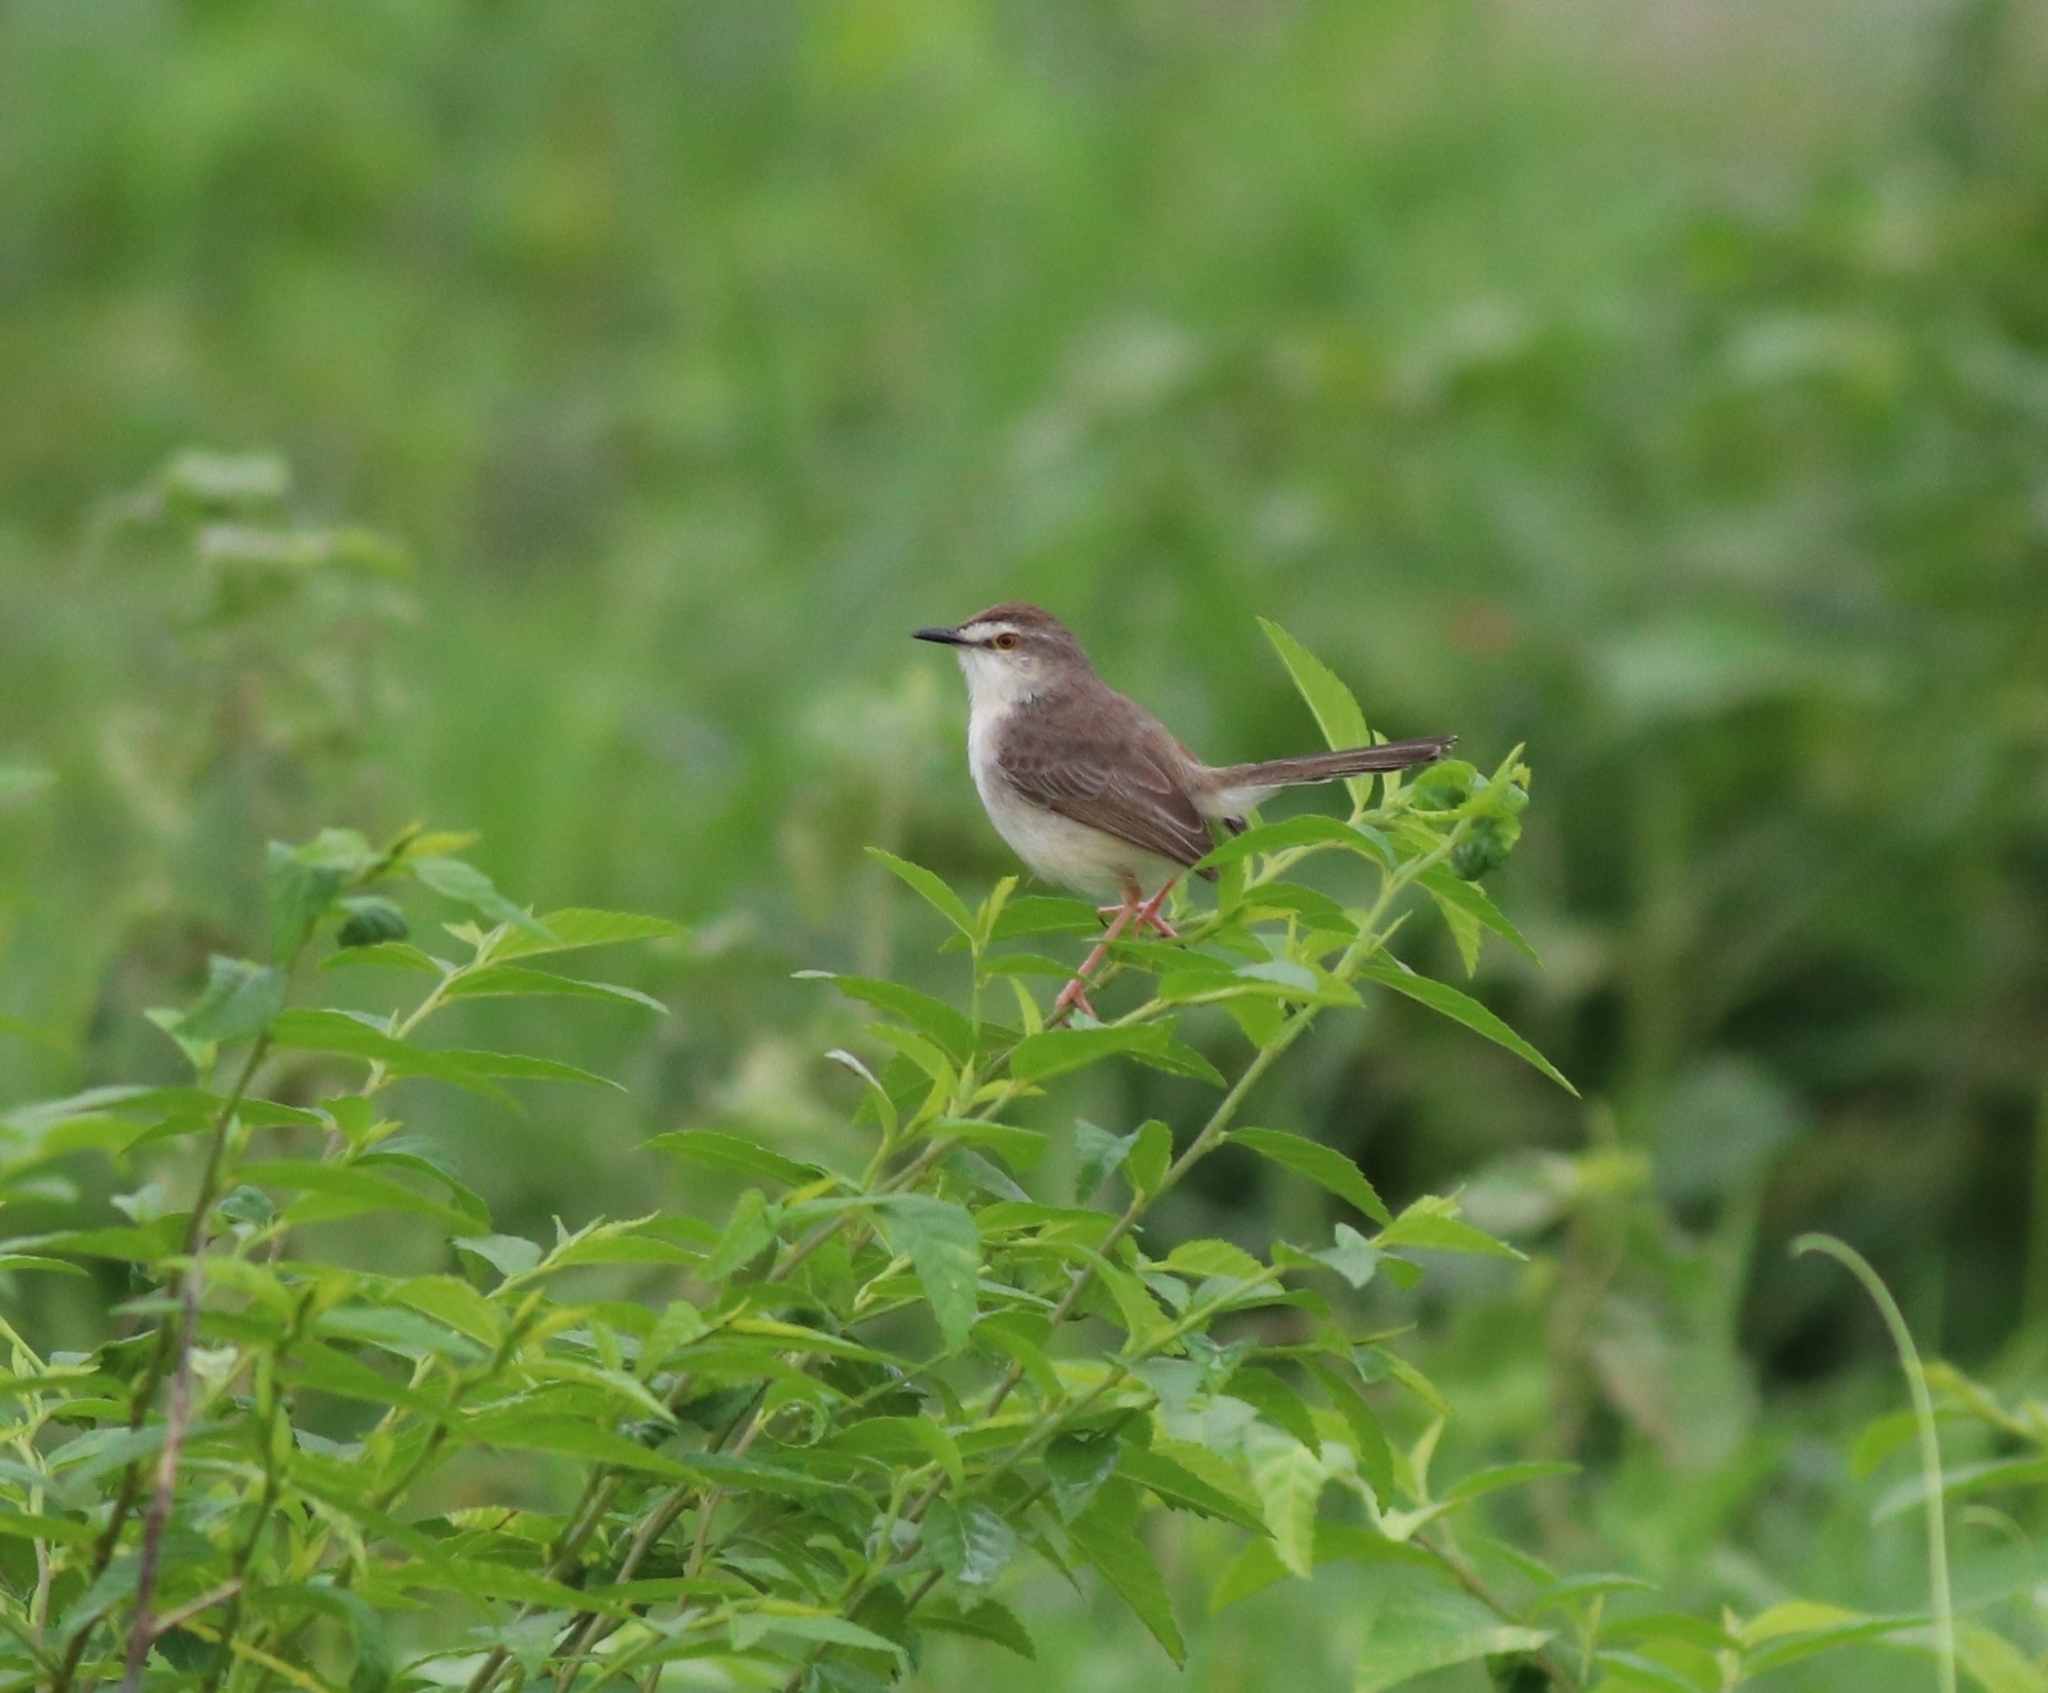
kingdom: Animalia
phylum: Chordata
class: Aves
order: Passeriformes
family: Cisticolidae
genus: Prinia
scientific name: Prinia inornata
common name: Plain prinia
